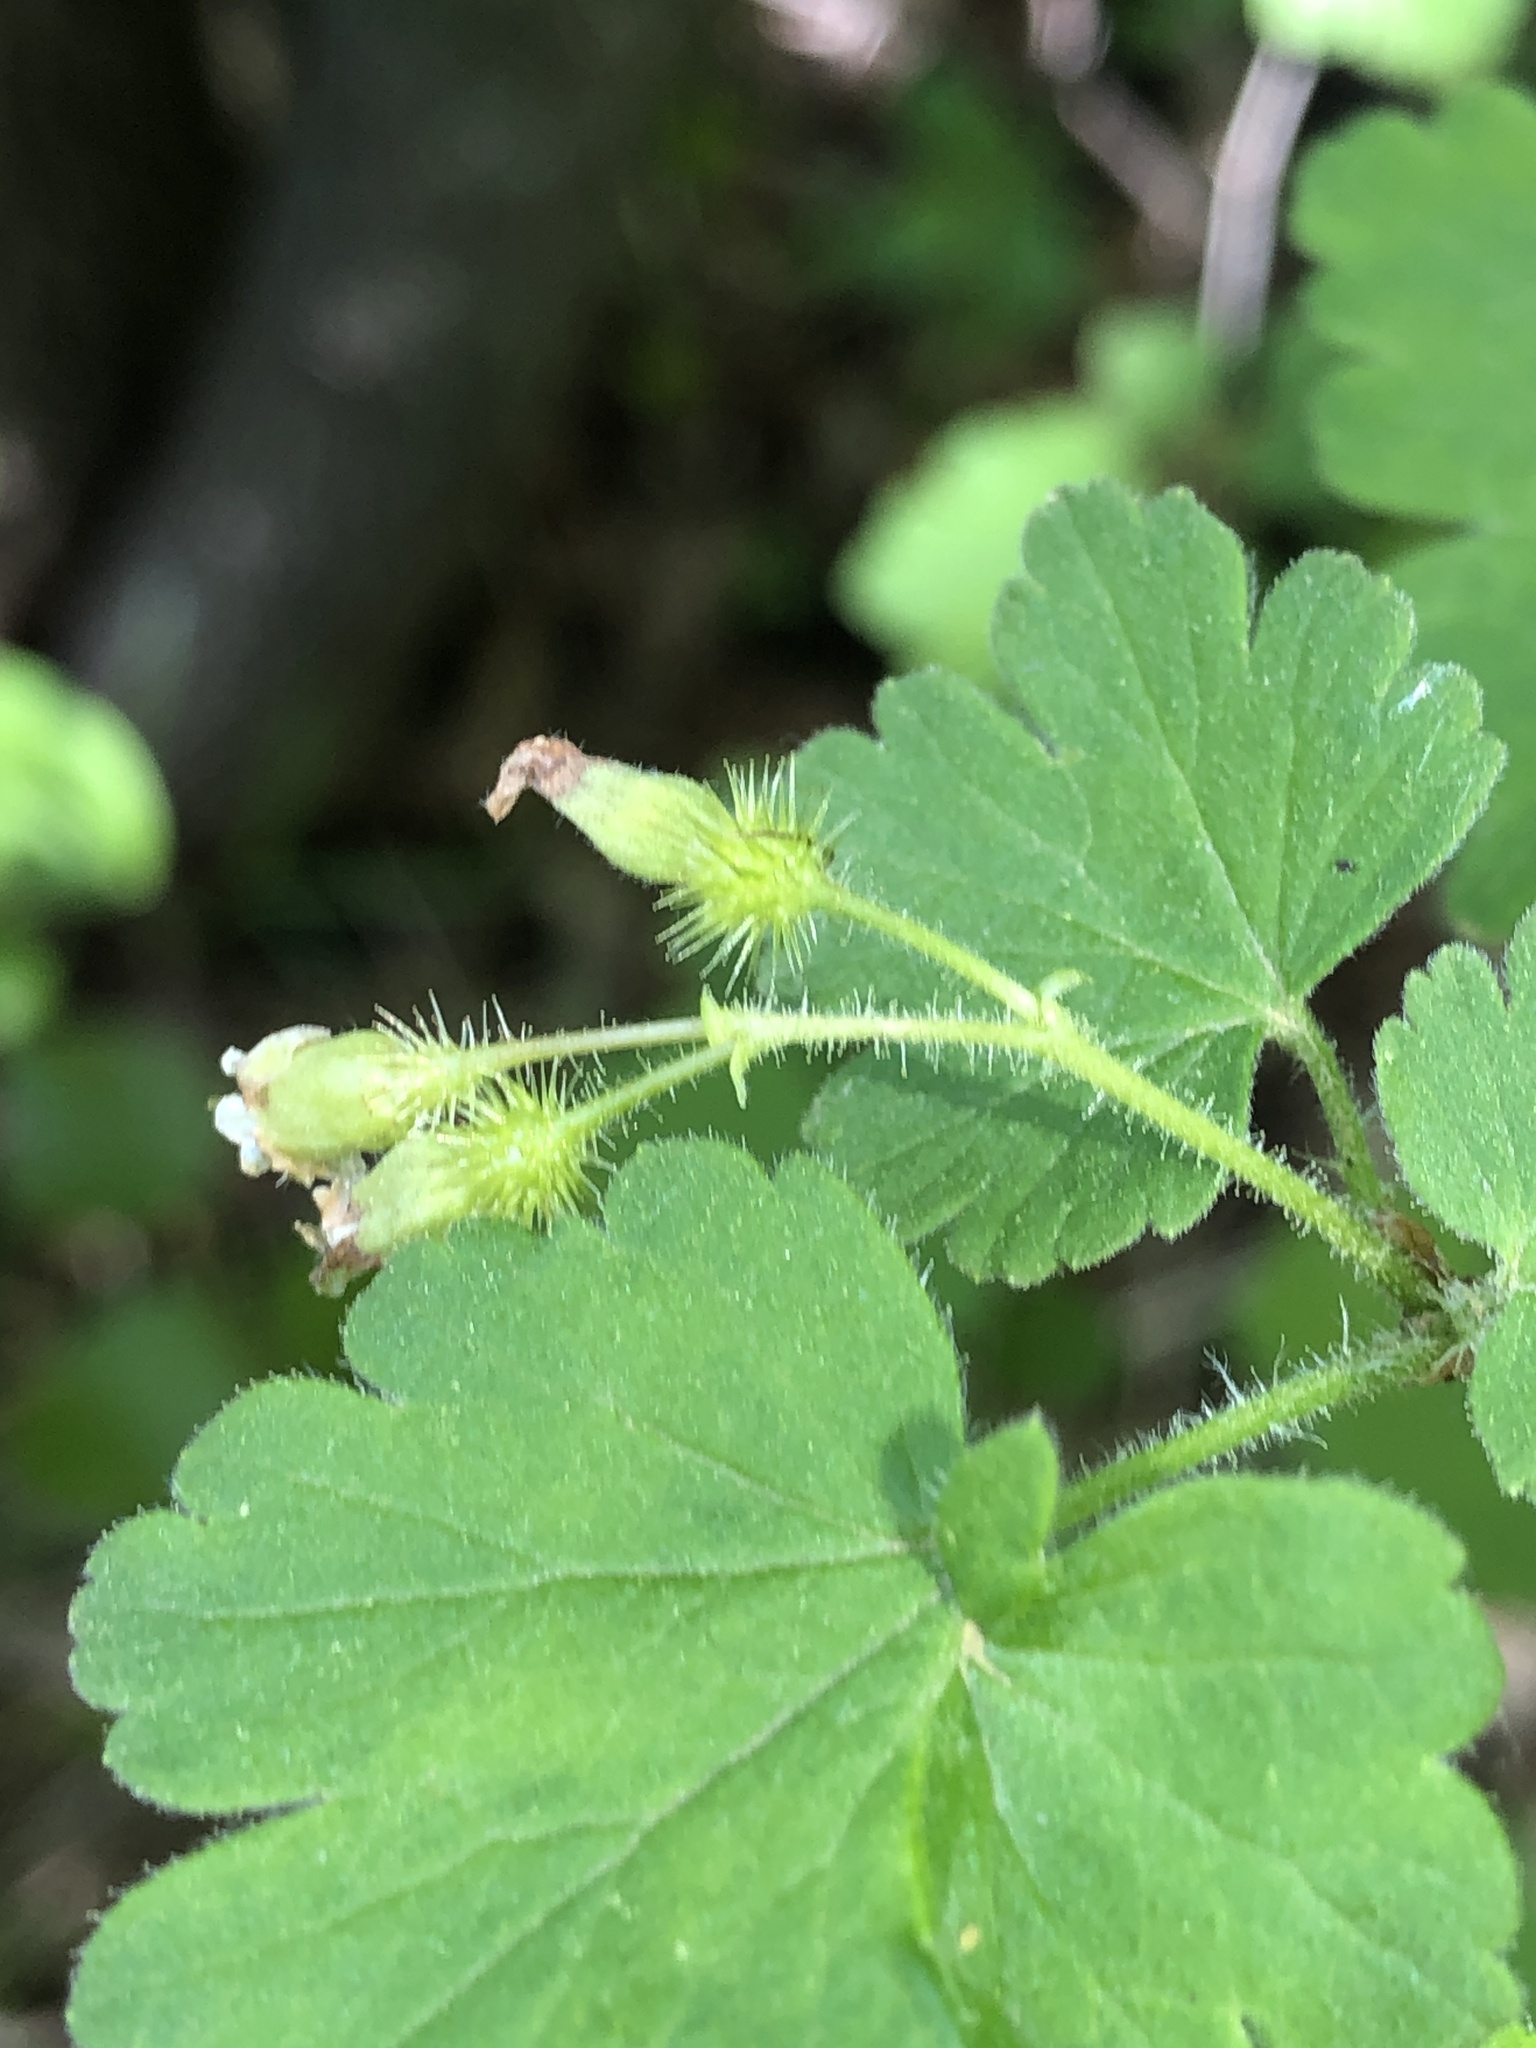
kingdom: Plantae
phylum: Tracheophyta
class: Magnoliopsida
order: Saxifragales
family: Grossulariaceae
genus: Ribes
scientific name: Ribes cynosbati
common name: American gooseberry
